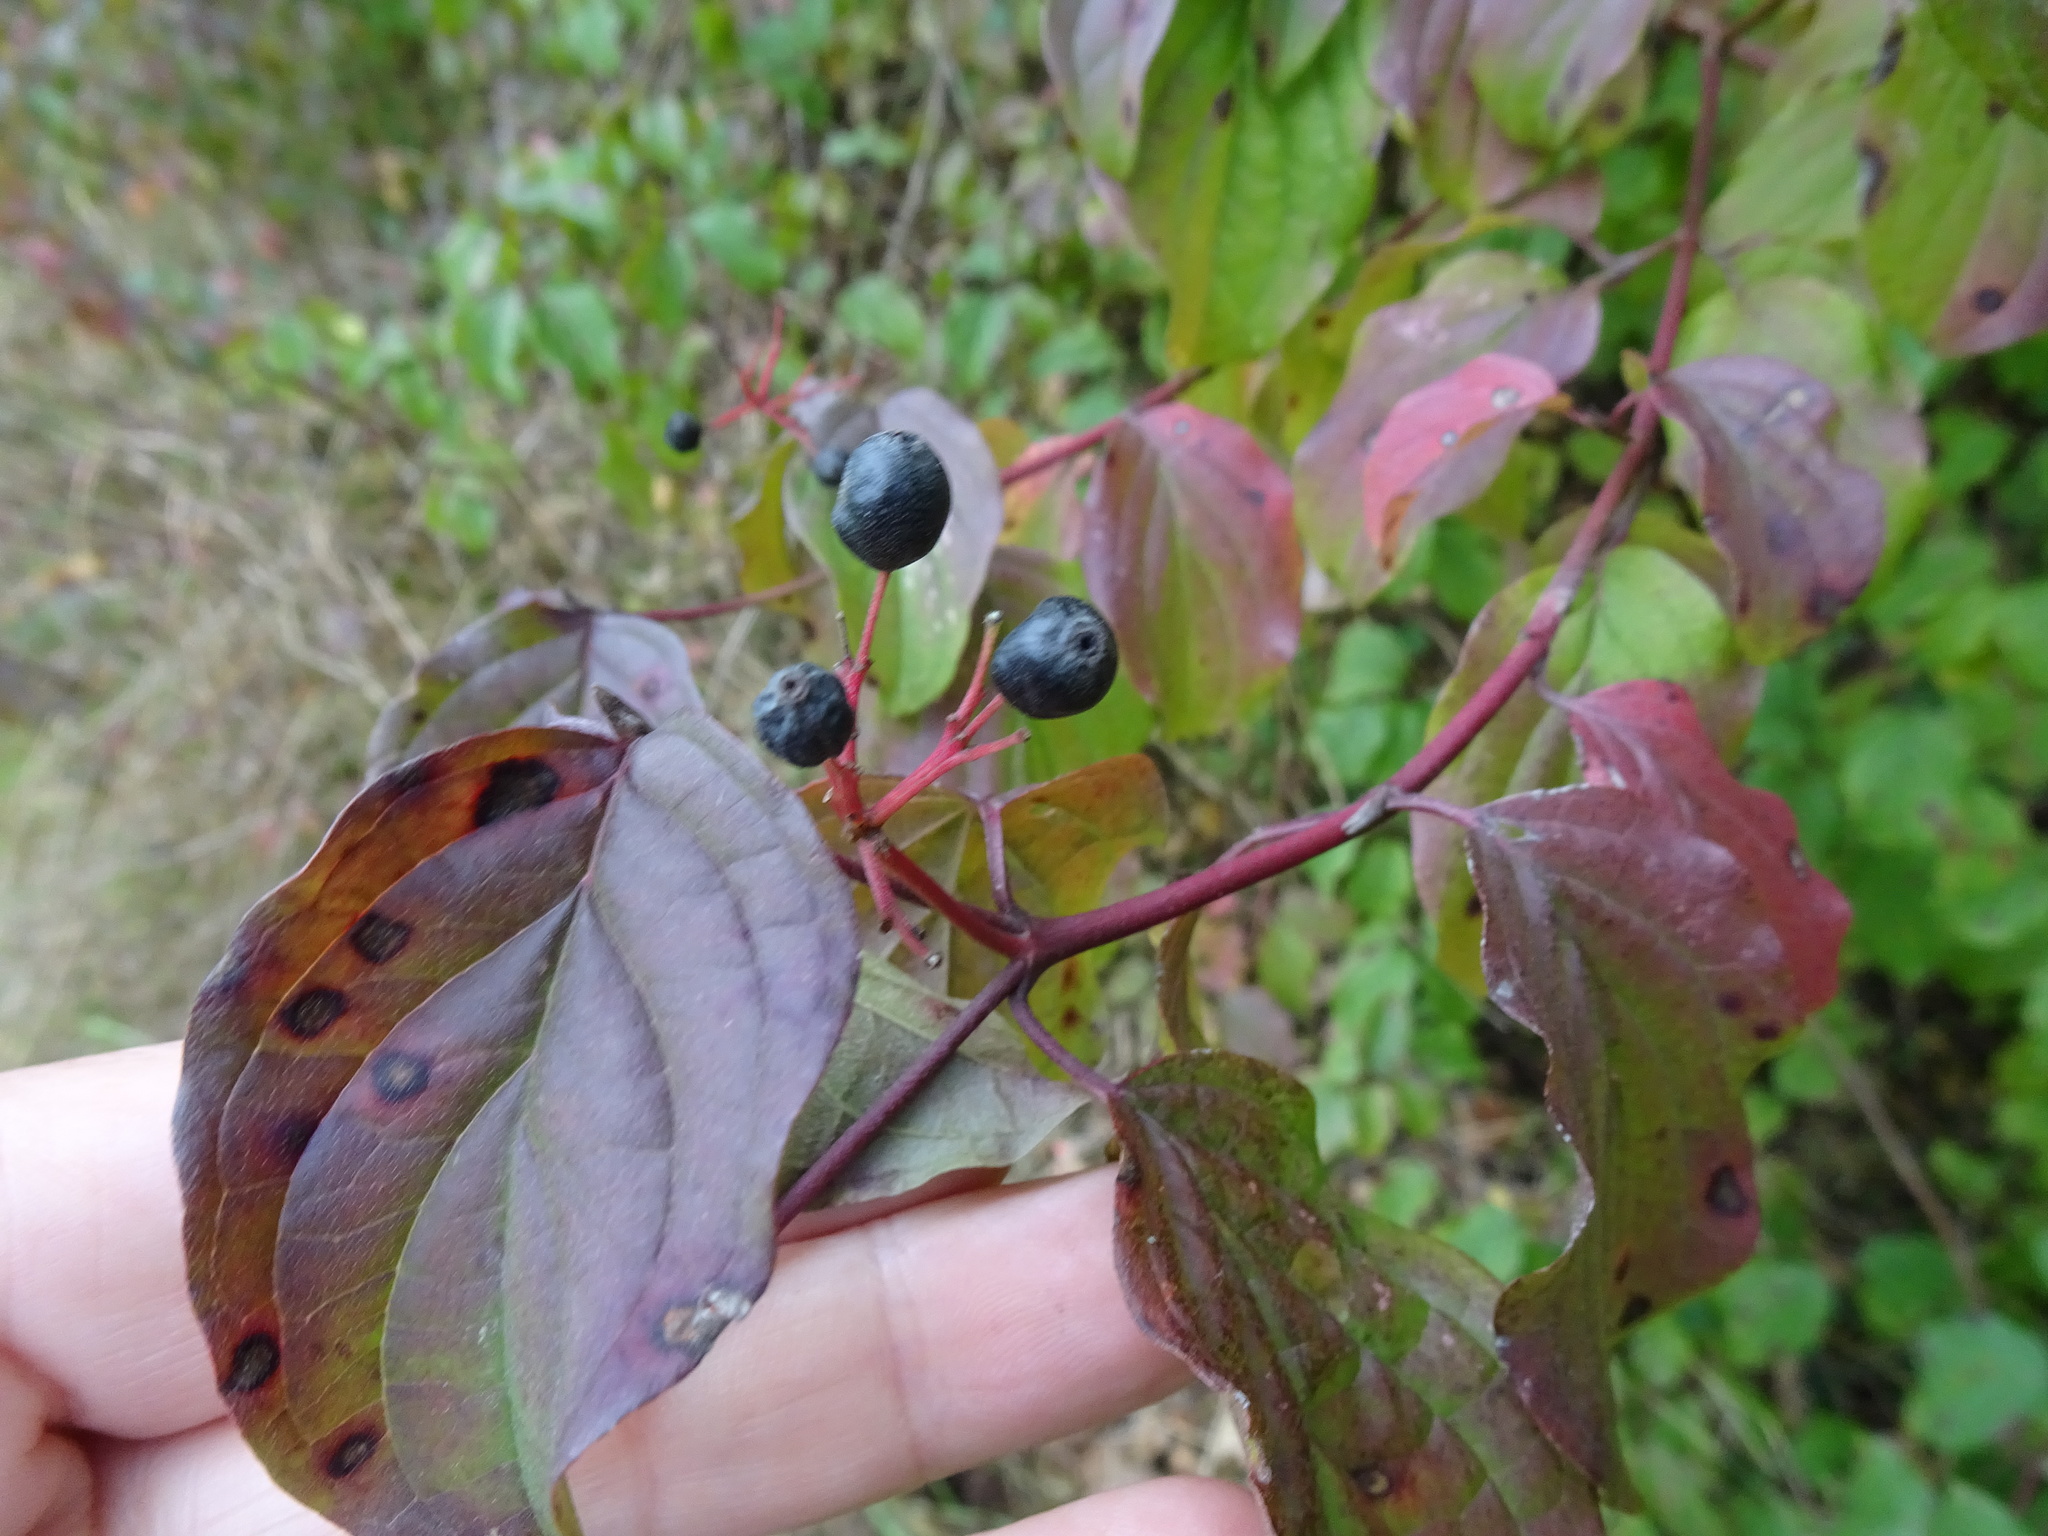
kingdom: Plantae
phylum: Tracheophyta
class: Magnoliopsida
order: Cornales
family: Cornaceae
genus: Cornus
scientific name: Cornus sanguinea
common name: Dogwood
